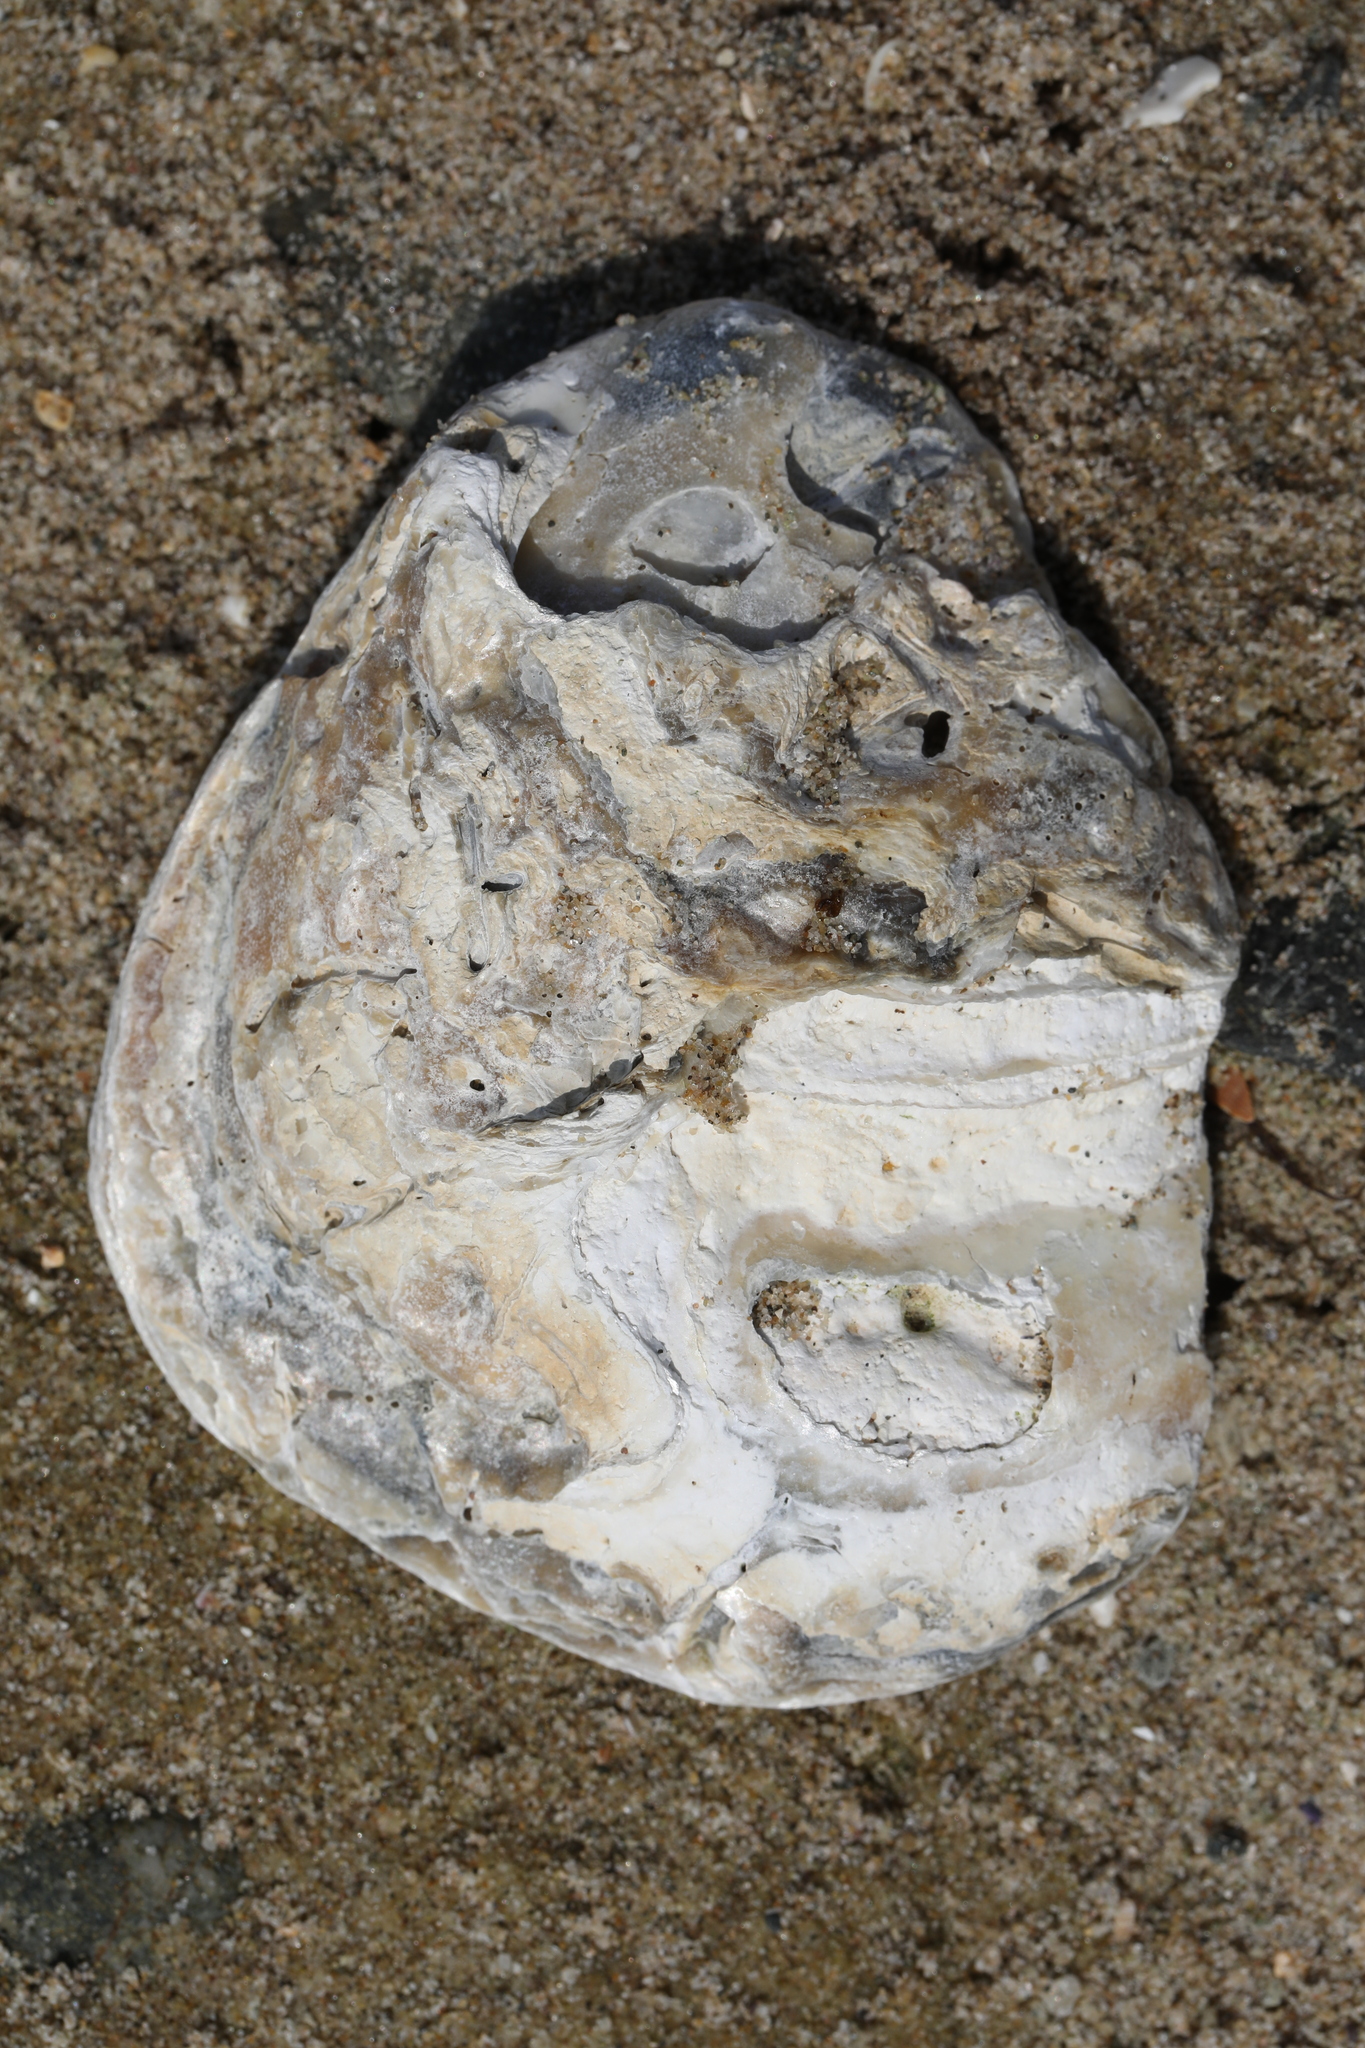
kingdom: Animalia
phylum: Mollusca
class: Bivalvia
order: Ostreida
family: Ostreidae
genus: Ostrea
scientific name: Ostrea edulis
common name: Flat oyster
